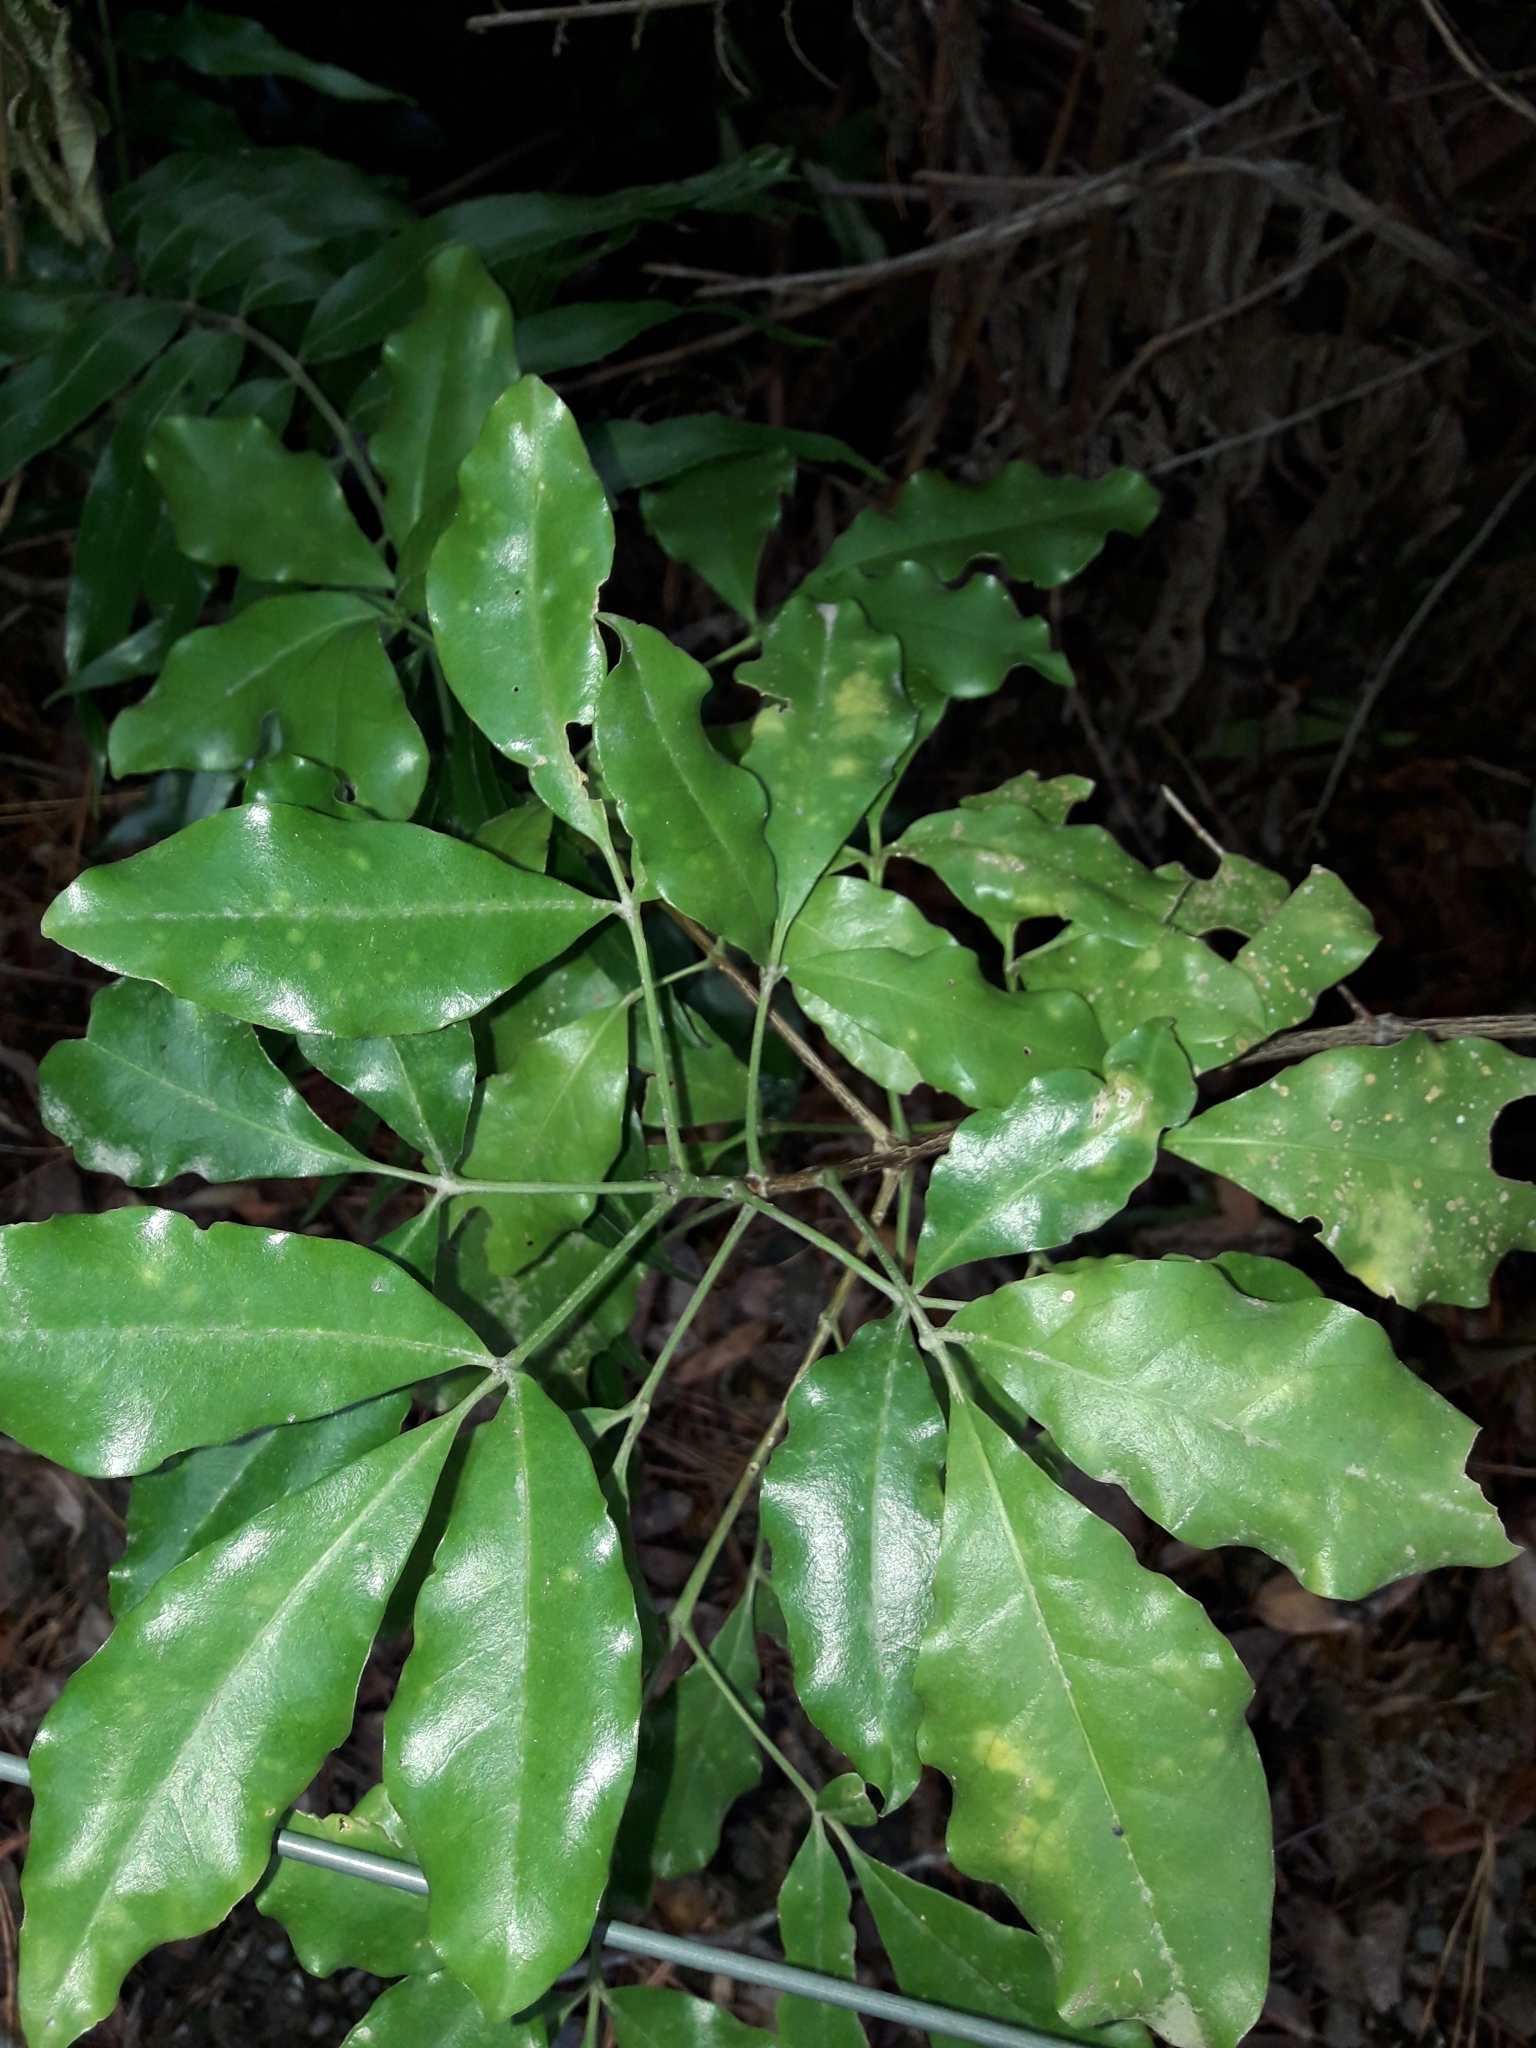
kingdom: Plantae
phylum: Tracheophyta
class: Magnoliopsida
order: Sapindales
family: Rutaceae
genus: Melicope
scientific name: Melicope ternata
